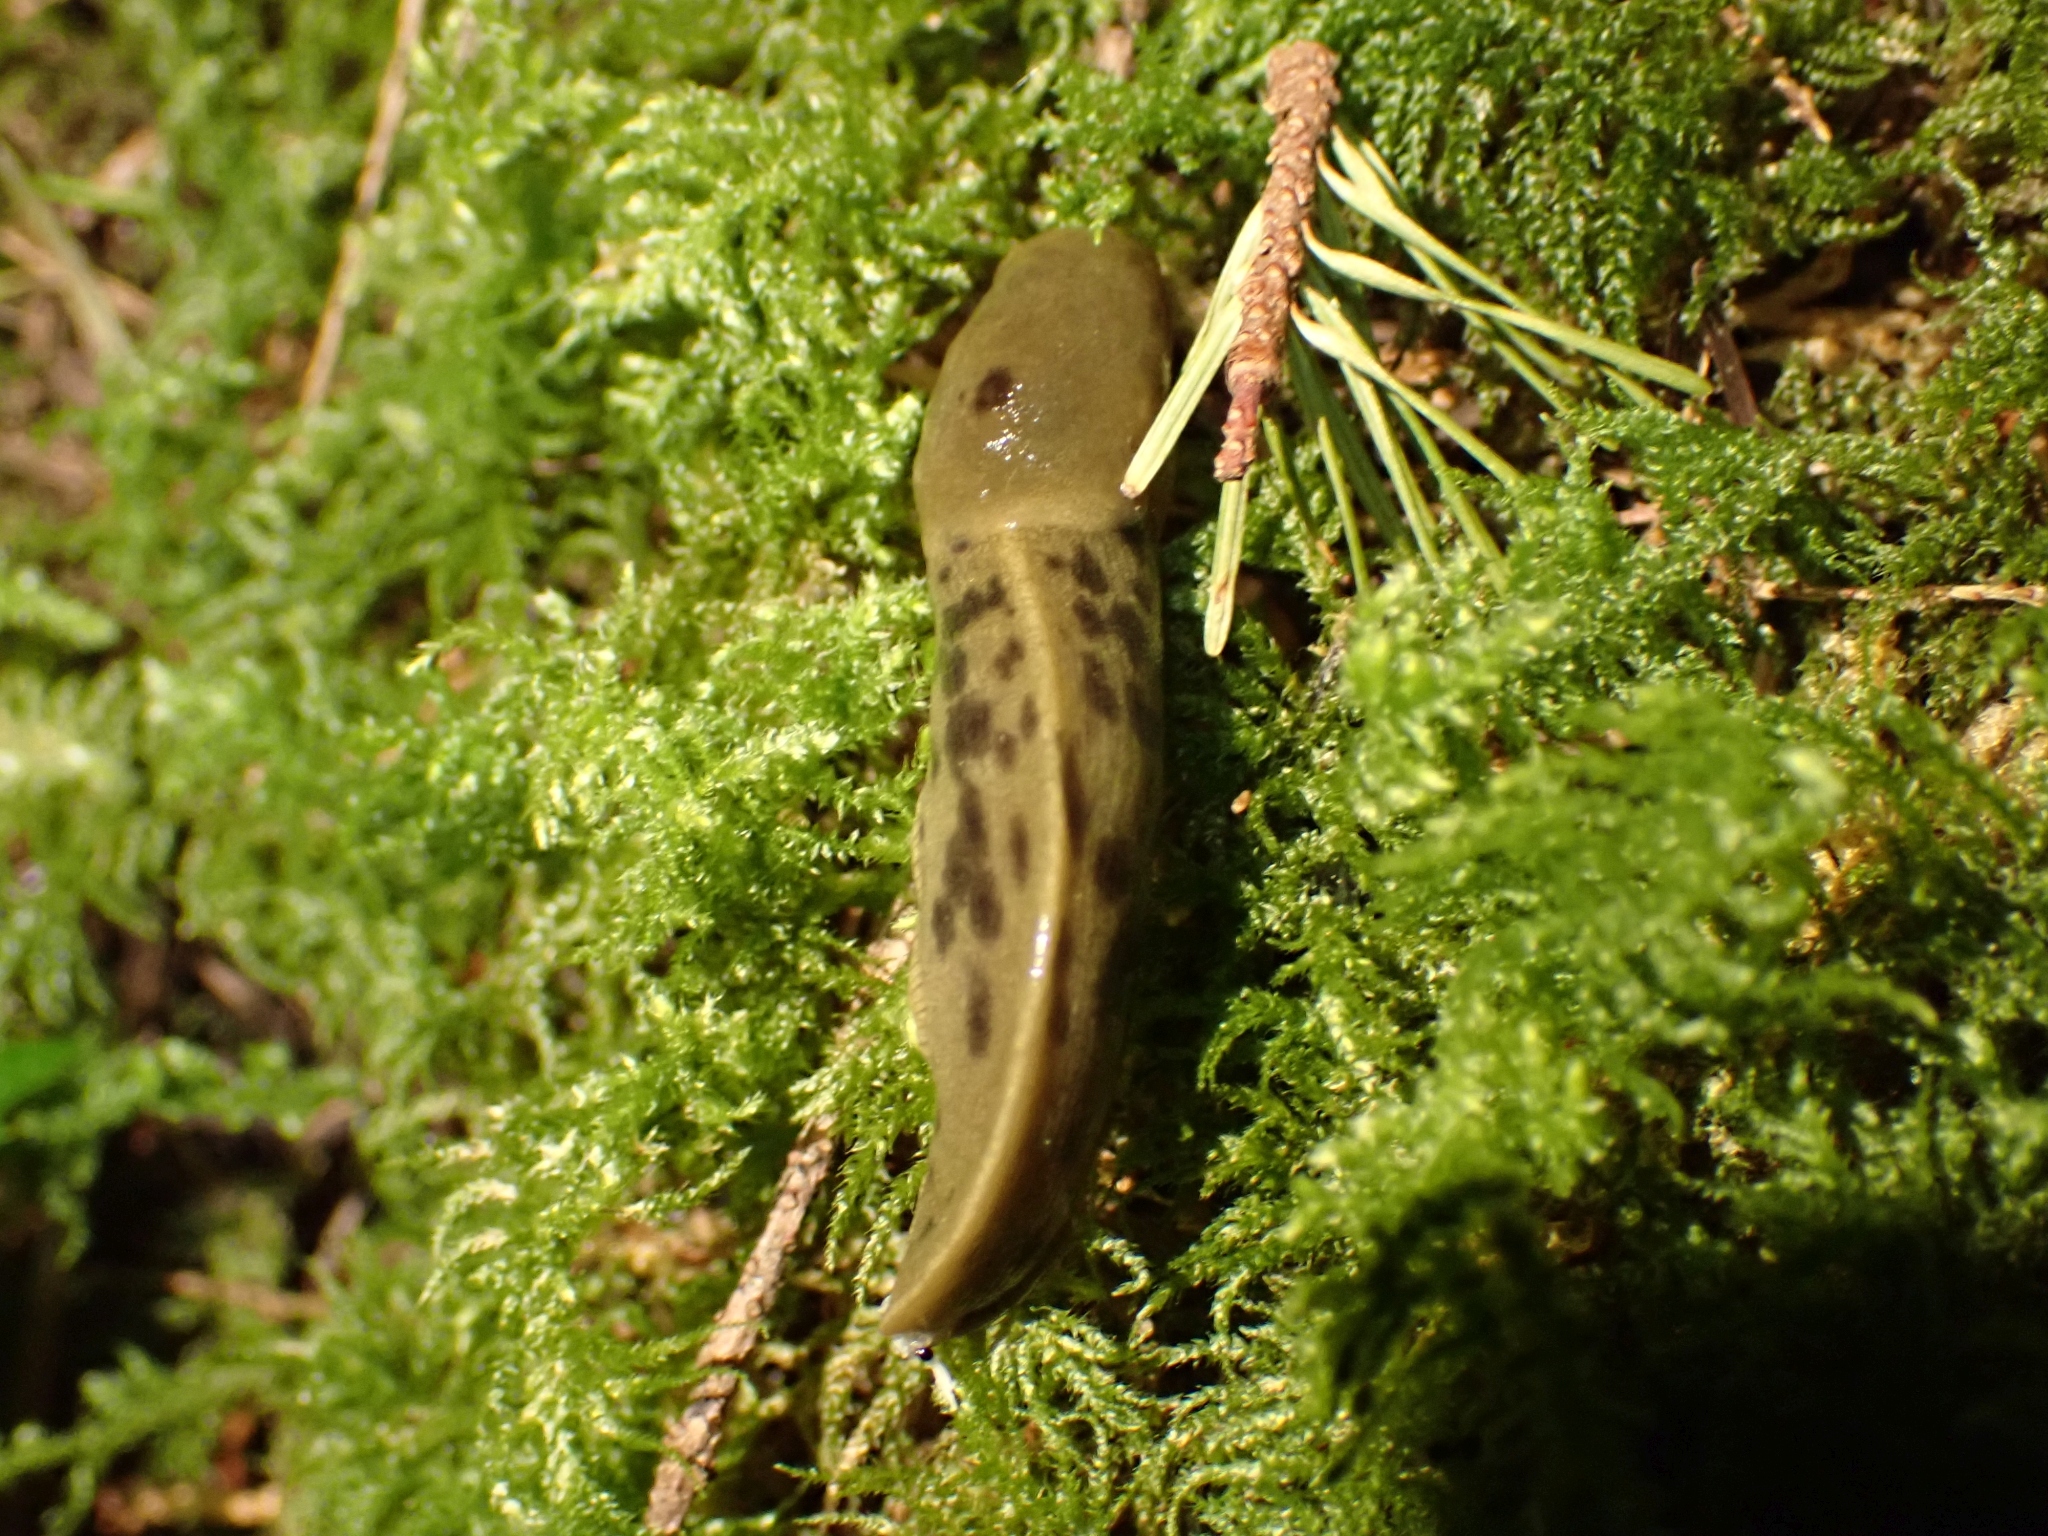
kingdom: Animalia
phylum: Mollusca
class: Gastropoda
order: Stylommatophora
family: Ariolimacidae
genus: Ariolimax
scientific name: Ariolimax columbianus
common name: Pacific banana slug
